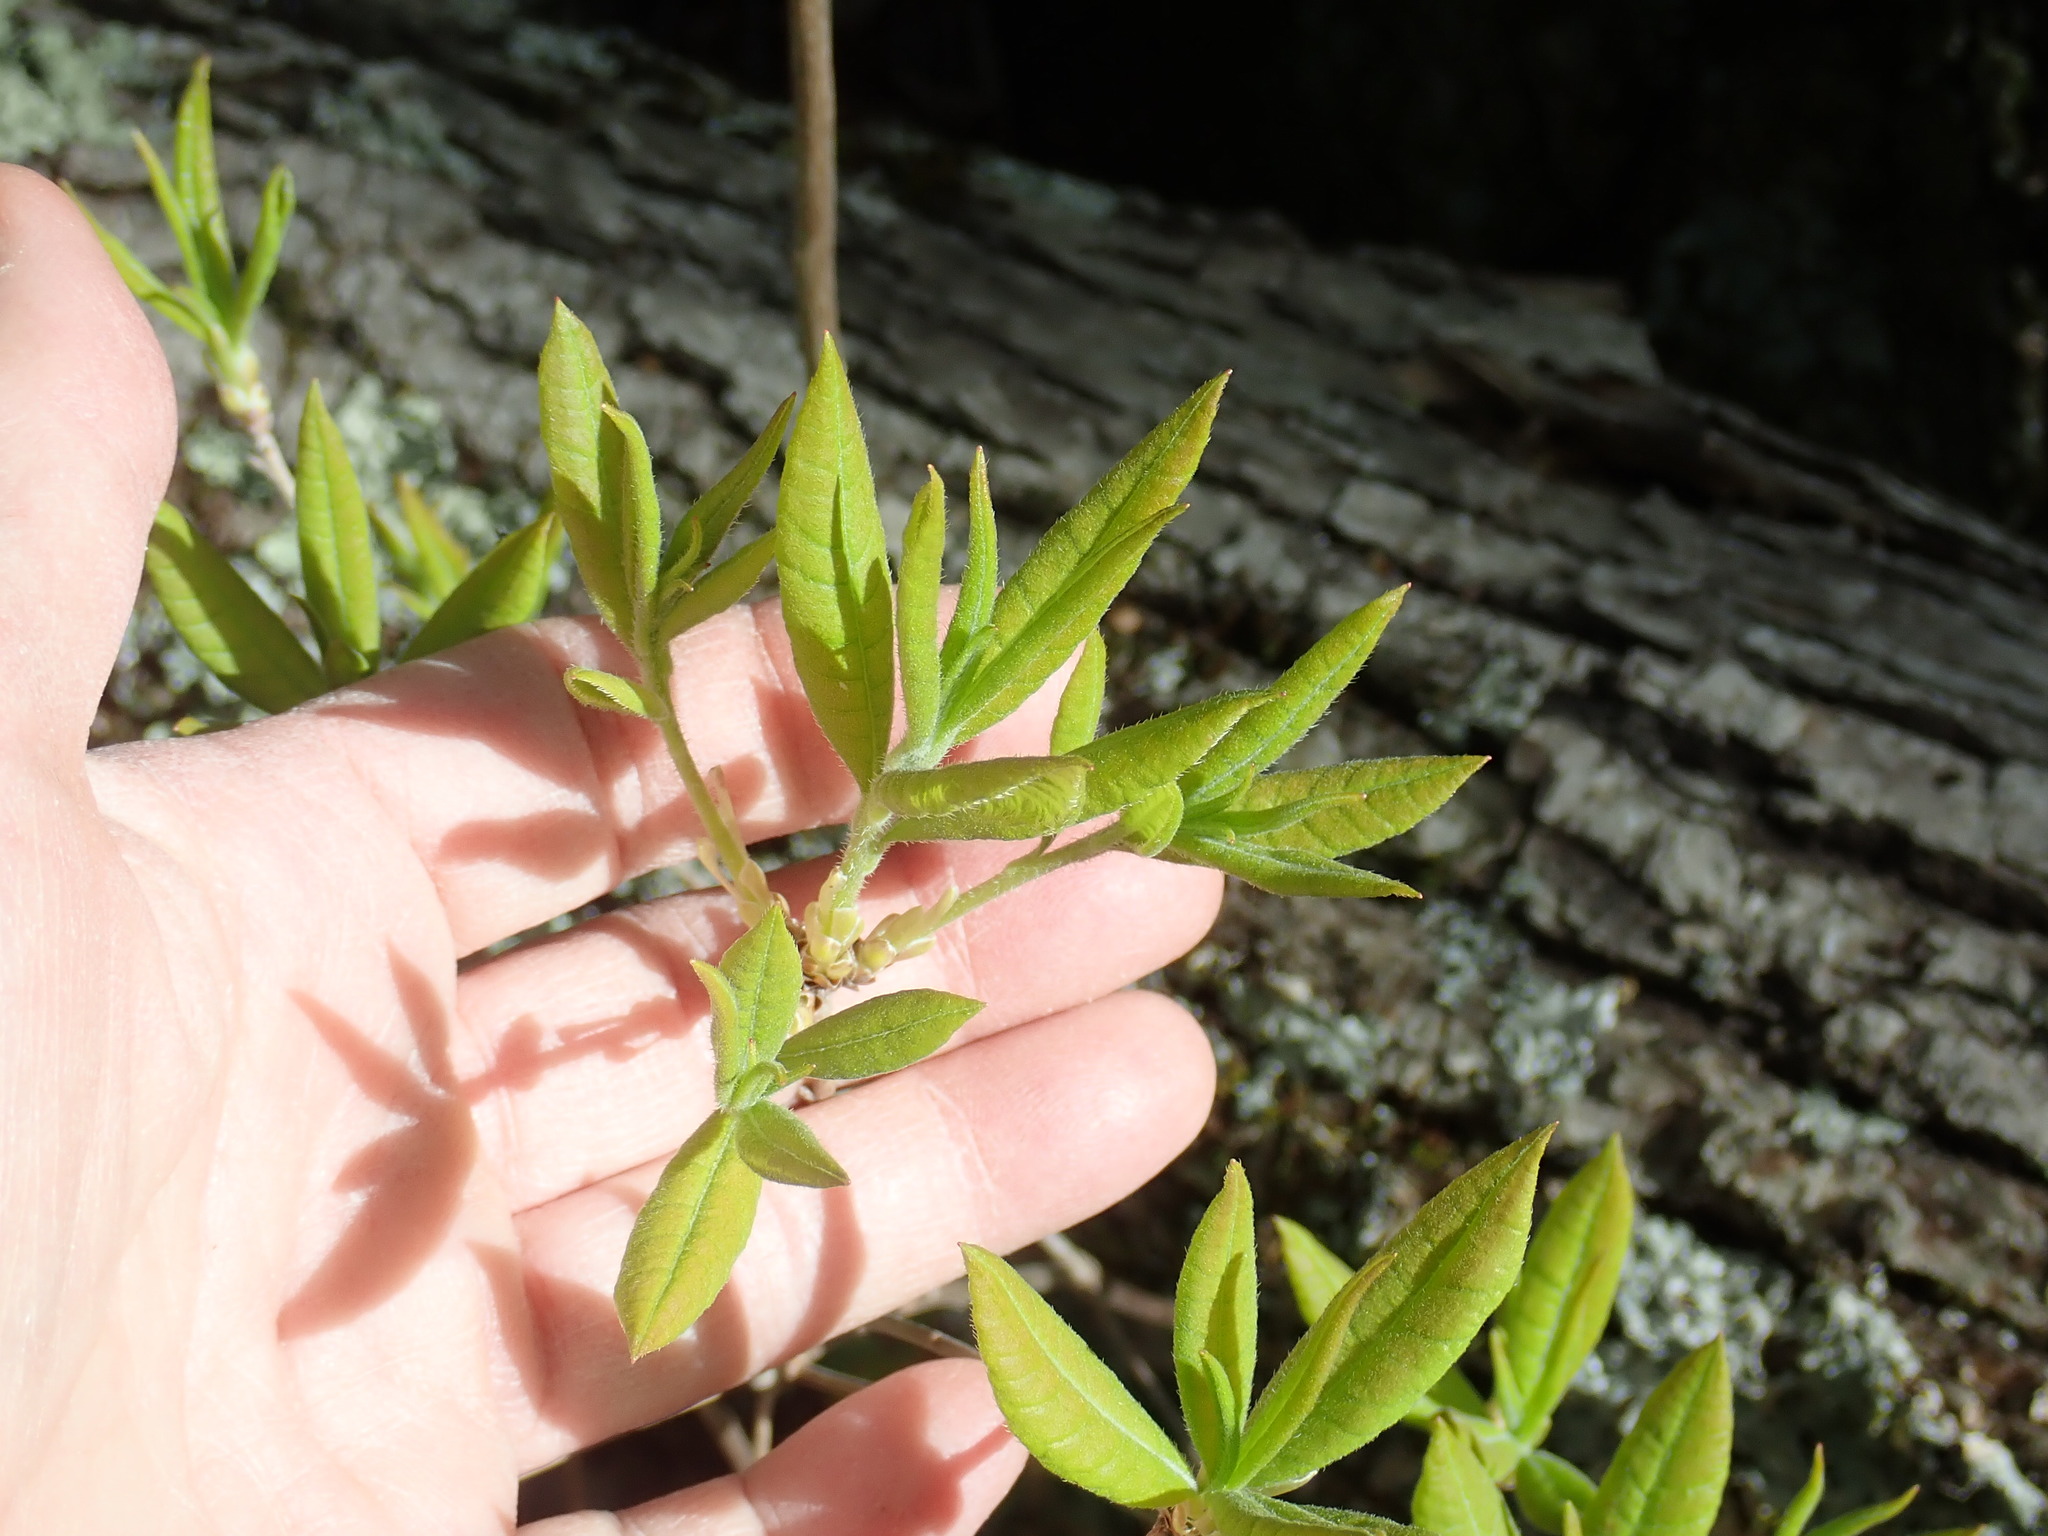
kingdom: Plantae
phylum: Tracheophyta
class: Magnoliopsida
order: Ericales
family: Ericaceae
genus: Rhododendron
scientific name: Rhododendron
